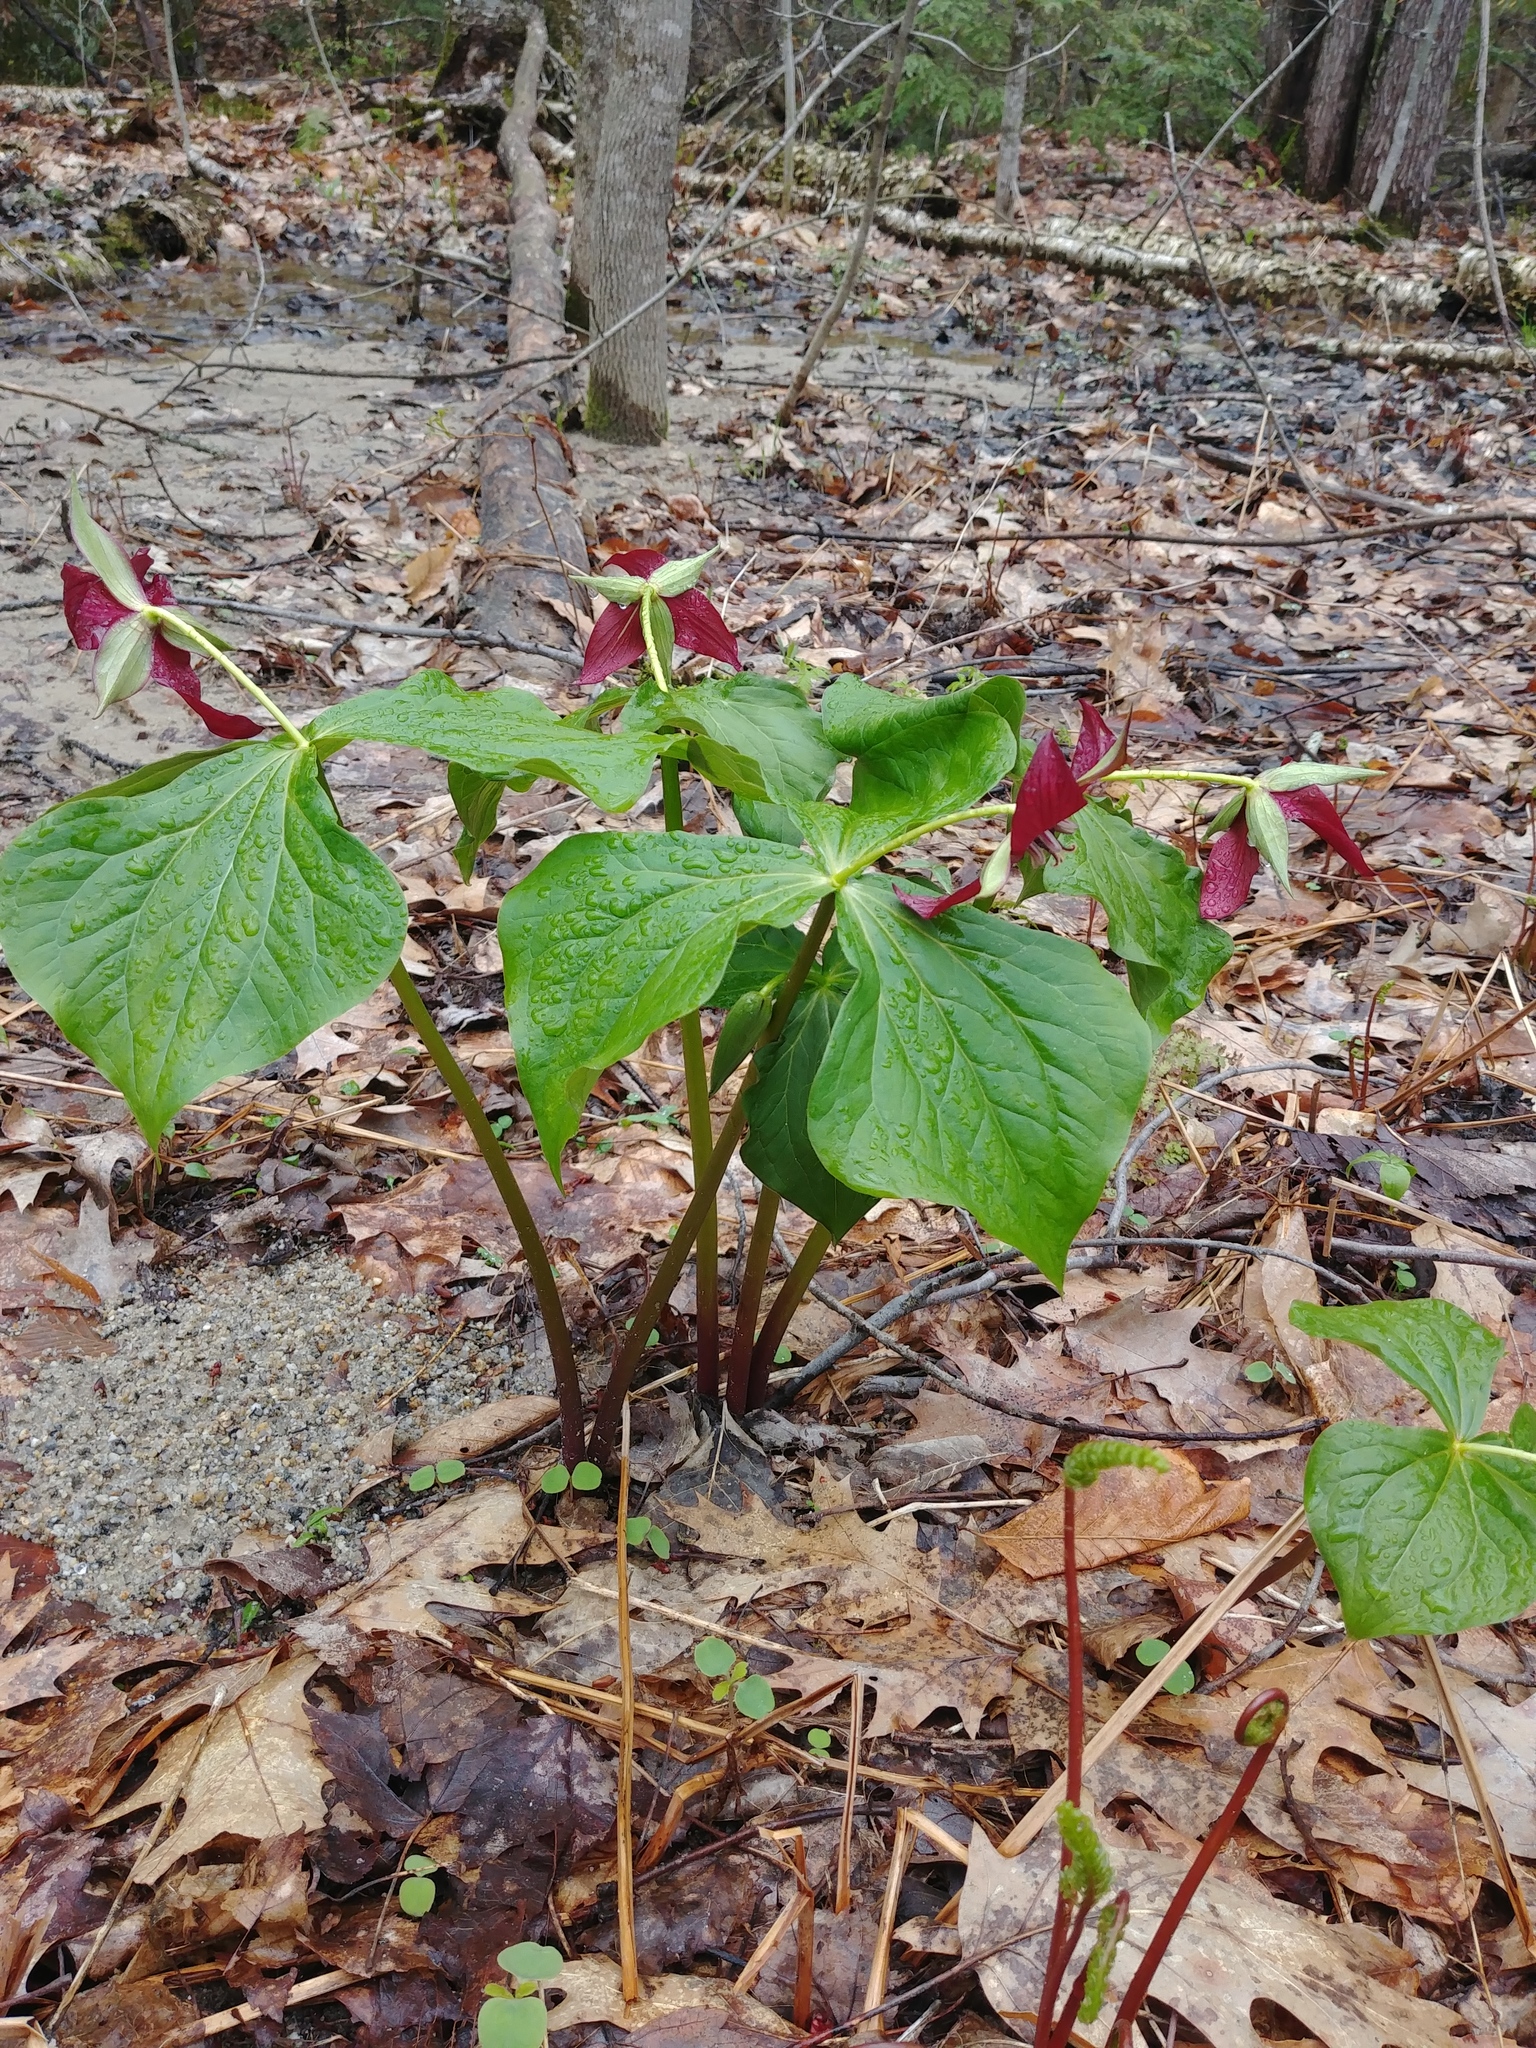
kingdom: Plantae
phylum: Tracheophyta
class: Liliopsida
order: Liliales
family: Melanthiaceae
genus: Trillium
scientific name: Trillium erectum
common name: Purple trillium
